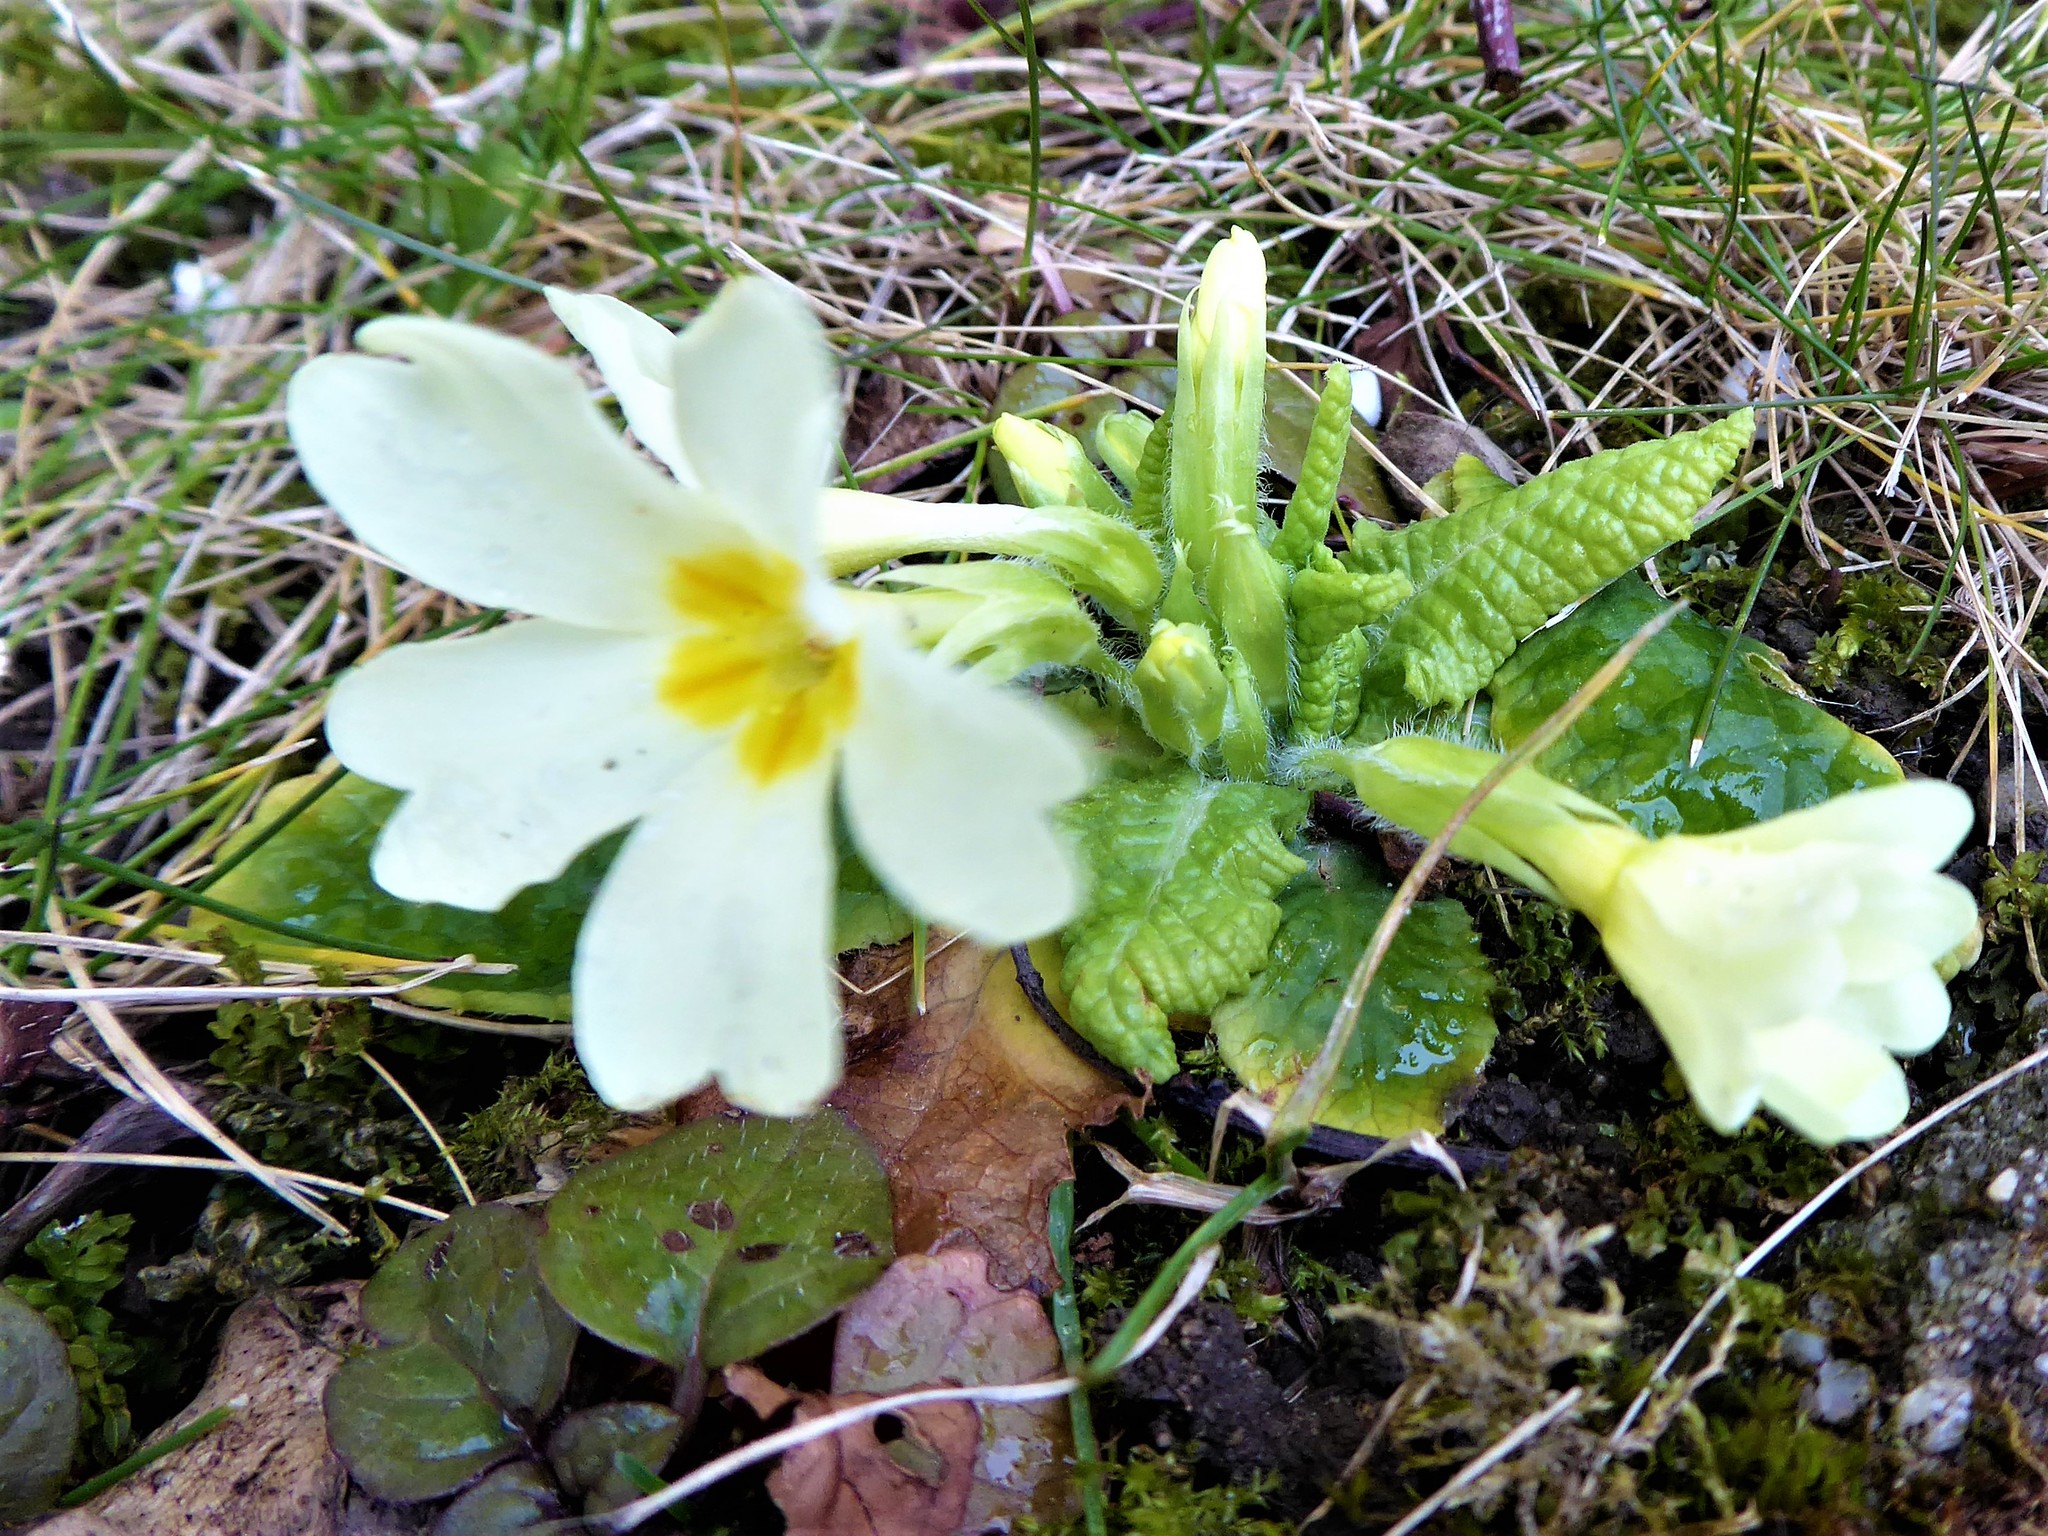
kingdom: Plantae
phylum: Tracheophyta
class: Magnoliopsida
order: Ericales
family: Primulaceae
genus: Primula
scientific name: Primula vulgaris
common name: Primrose
